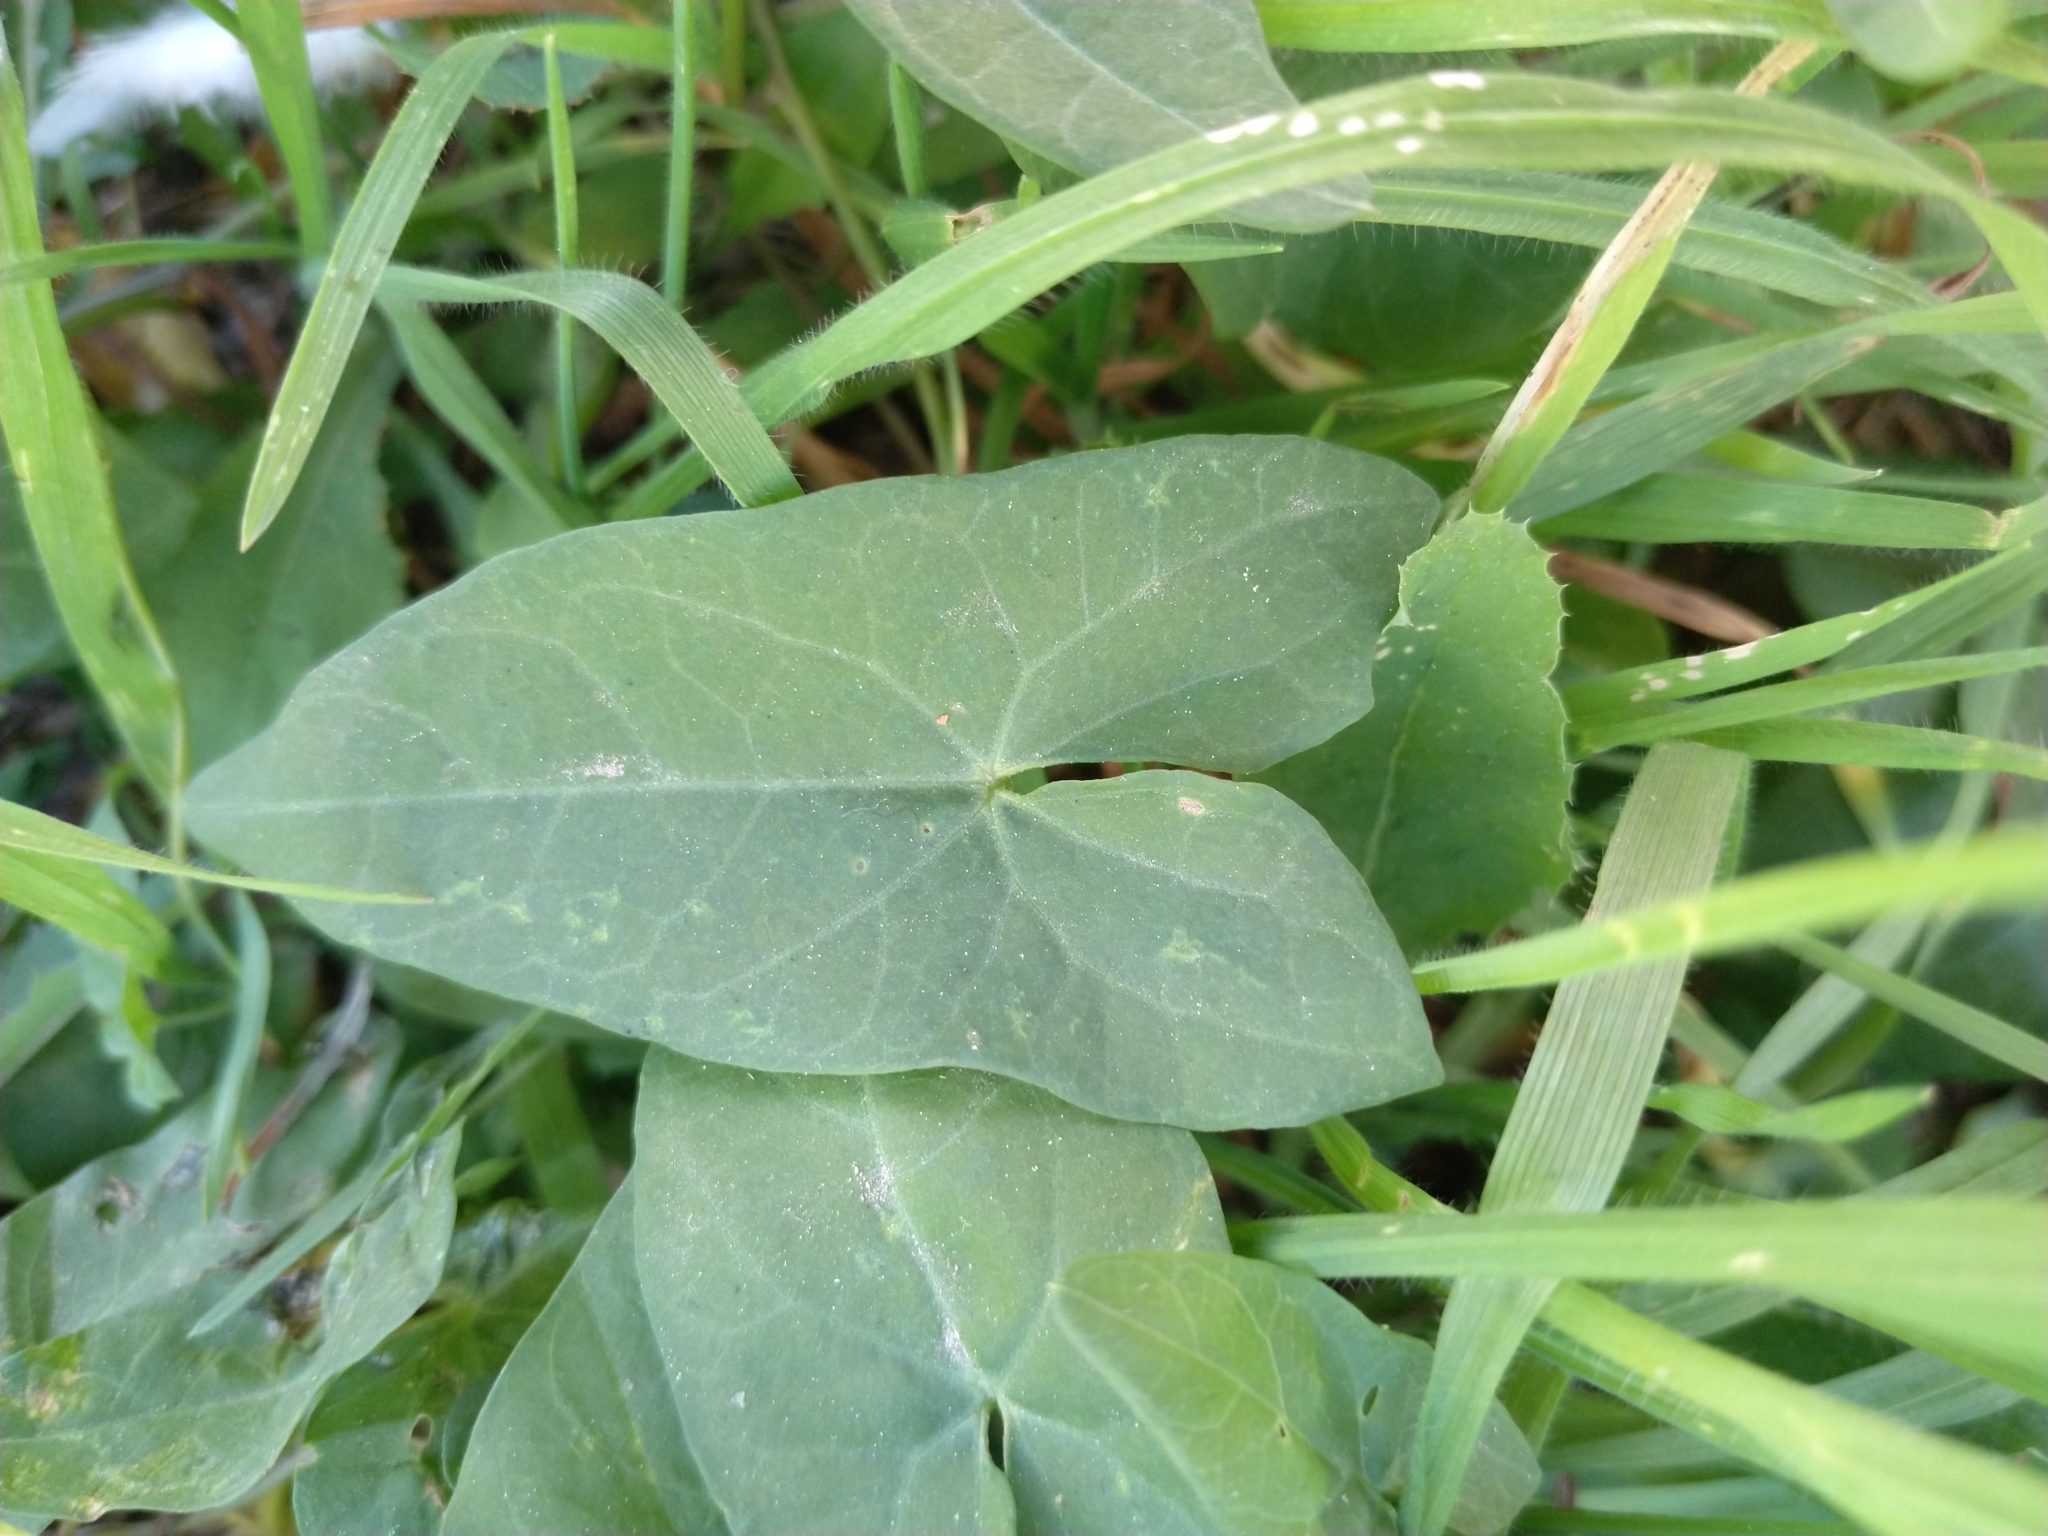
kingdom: Plantae
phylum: Tracheophyta
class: Magnoliopsida
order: Solanales
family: Convolvulaceae
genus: Calystegia
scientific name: Calystegia sepium
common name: Hedge bindweed
